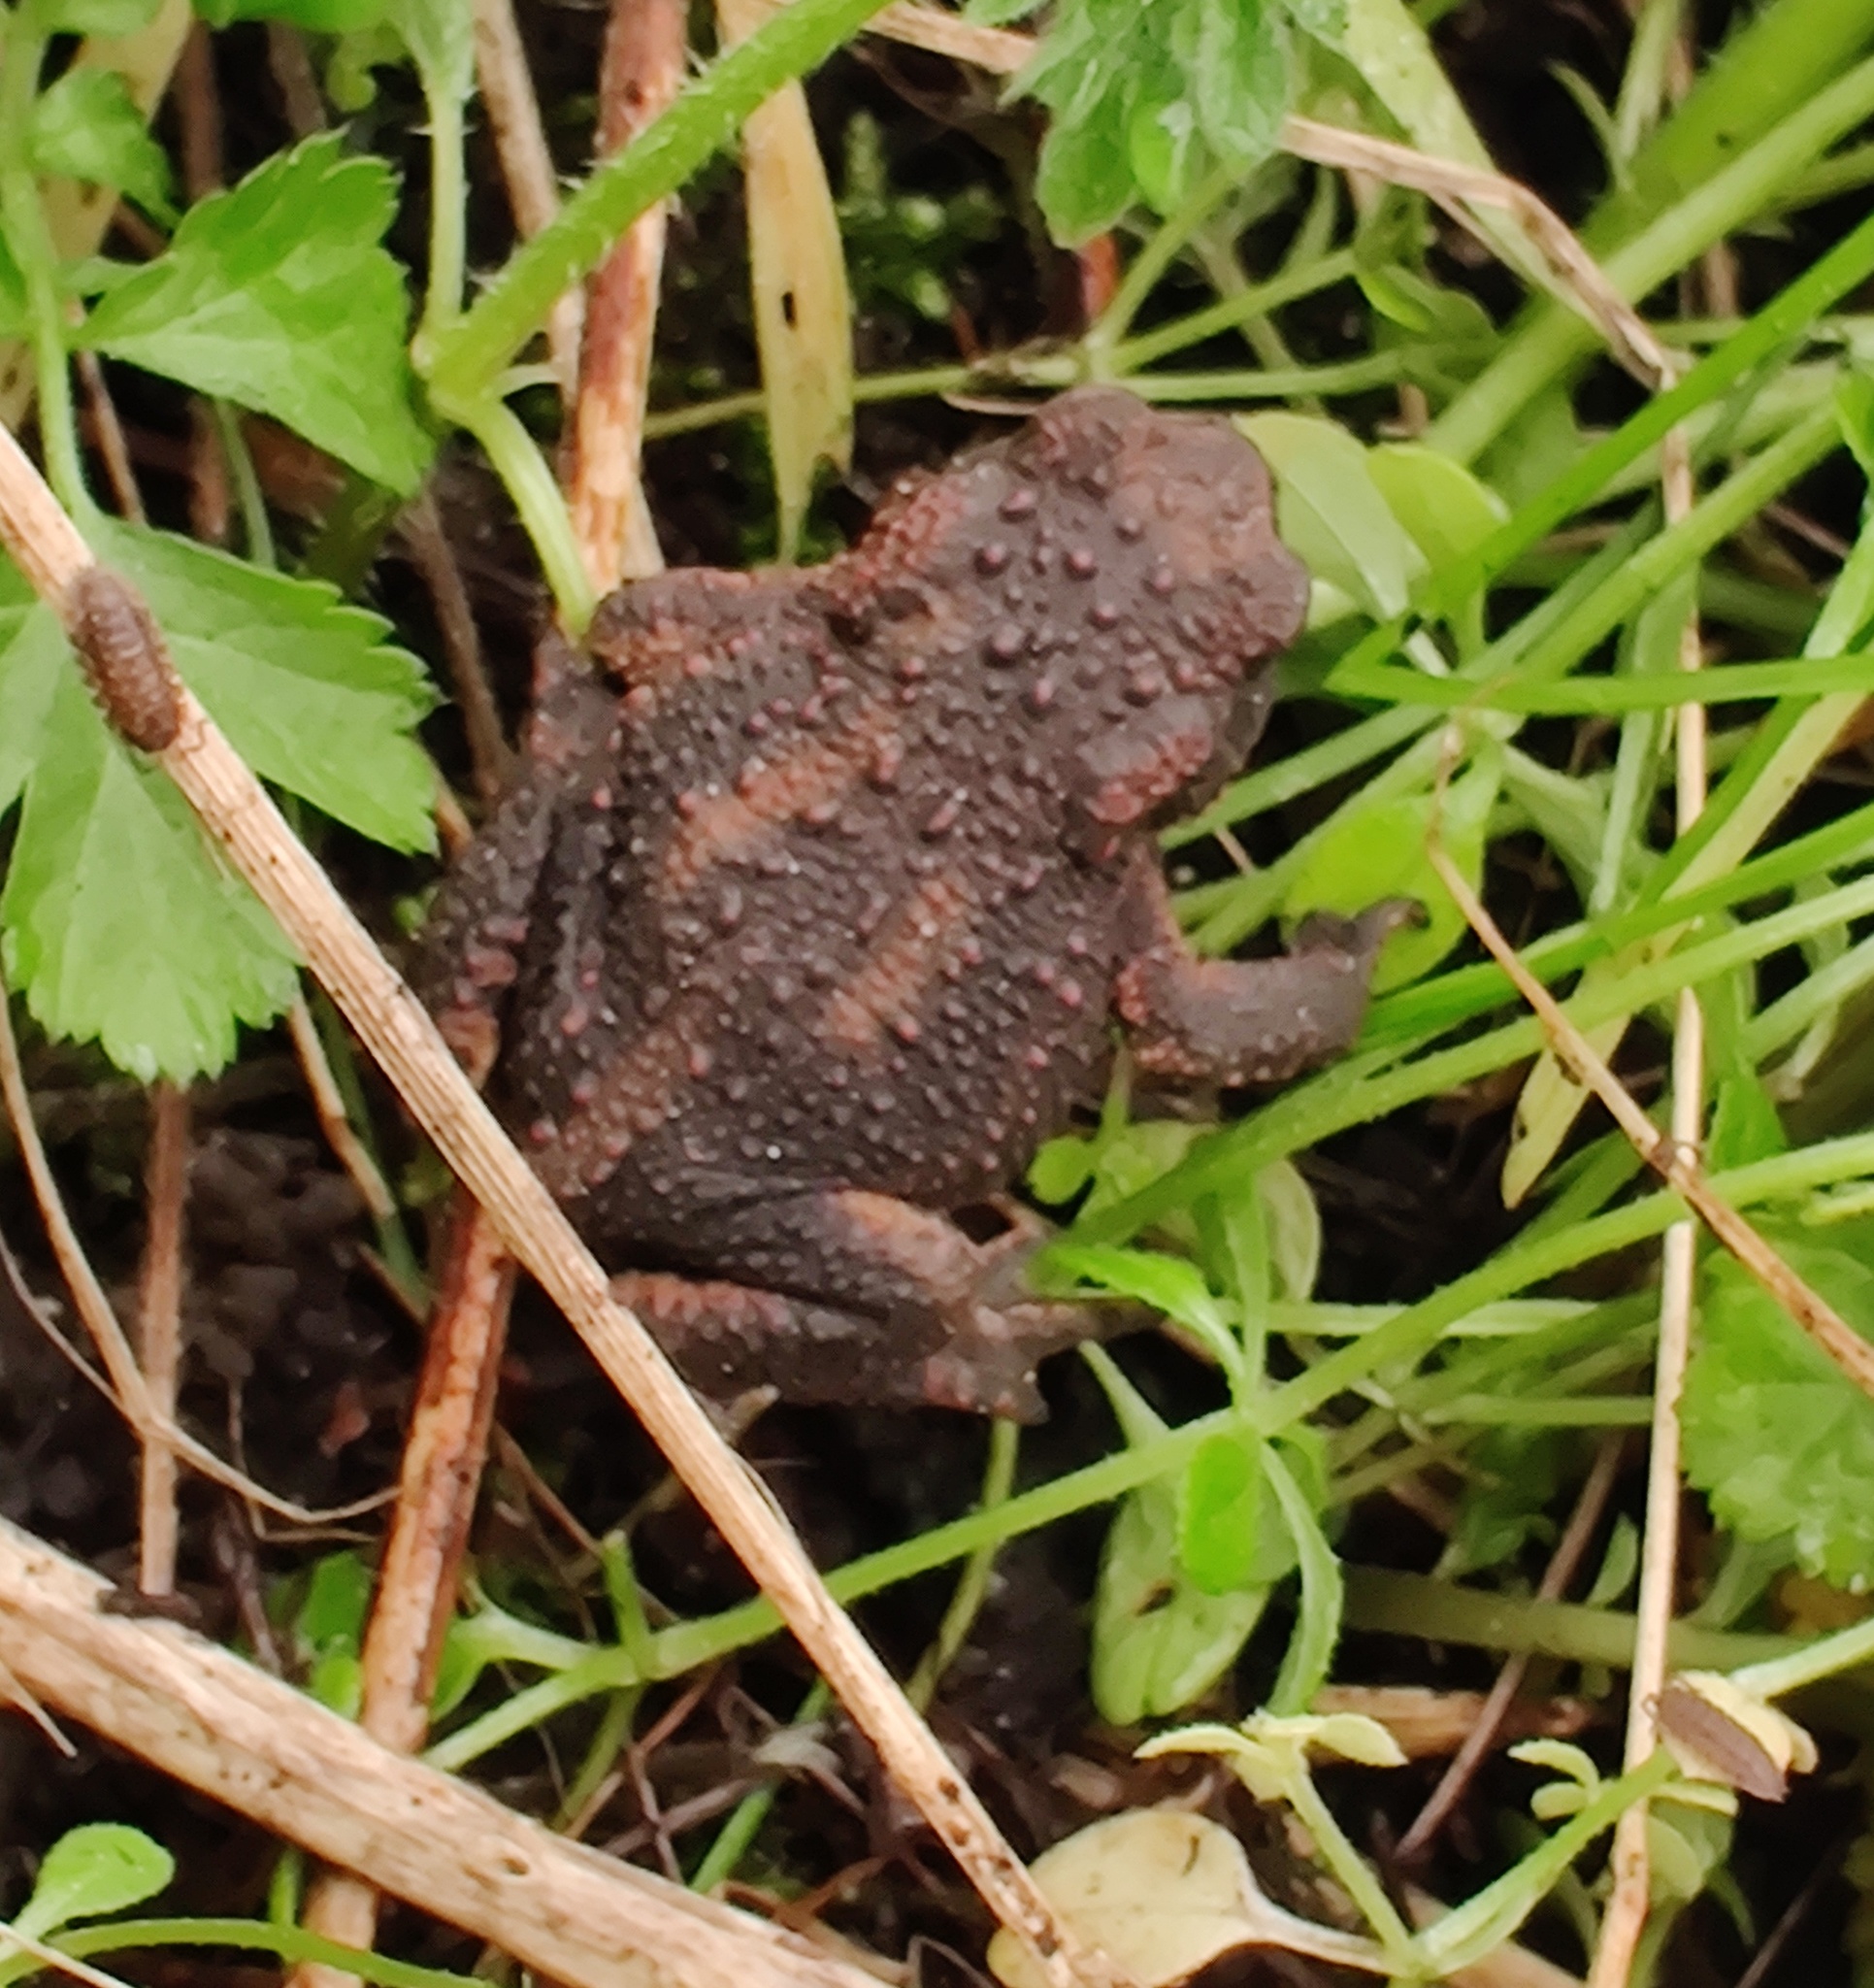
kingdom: Animalia
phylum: Chordata
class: Amphibia
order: Anura
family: Bufonidae
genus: Bufo
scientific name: Bufo bufo
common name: Common toad
